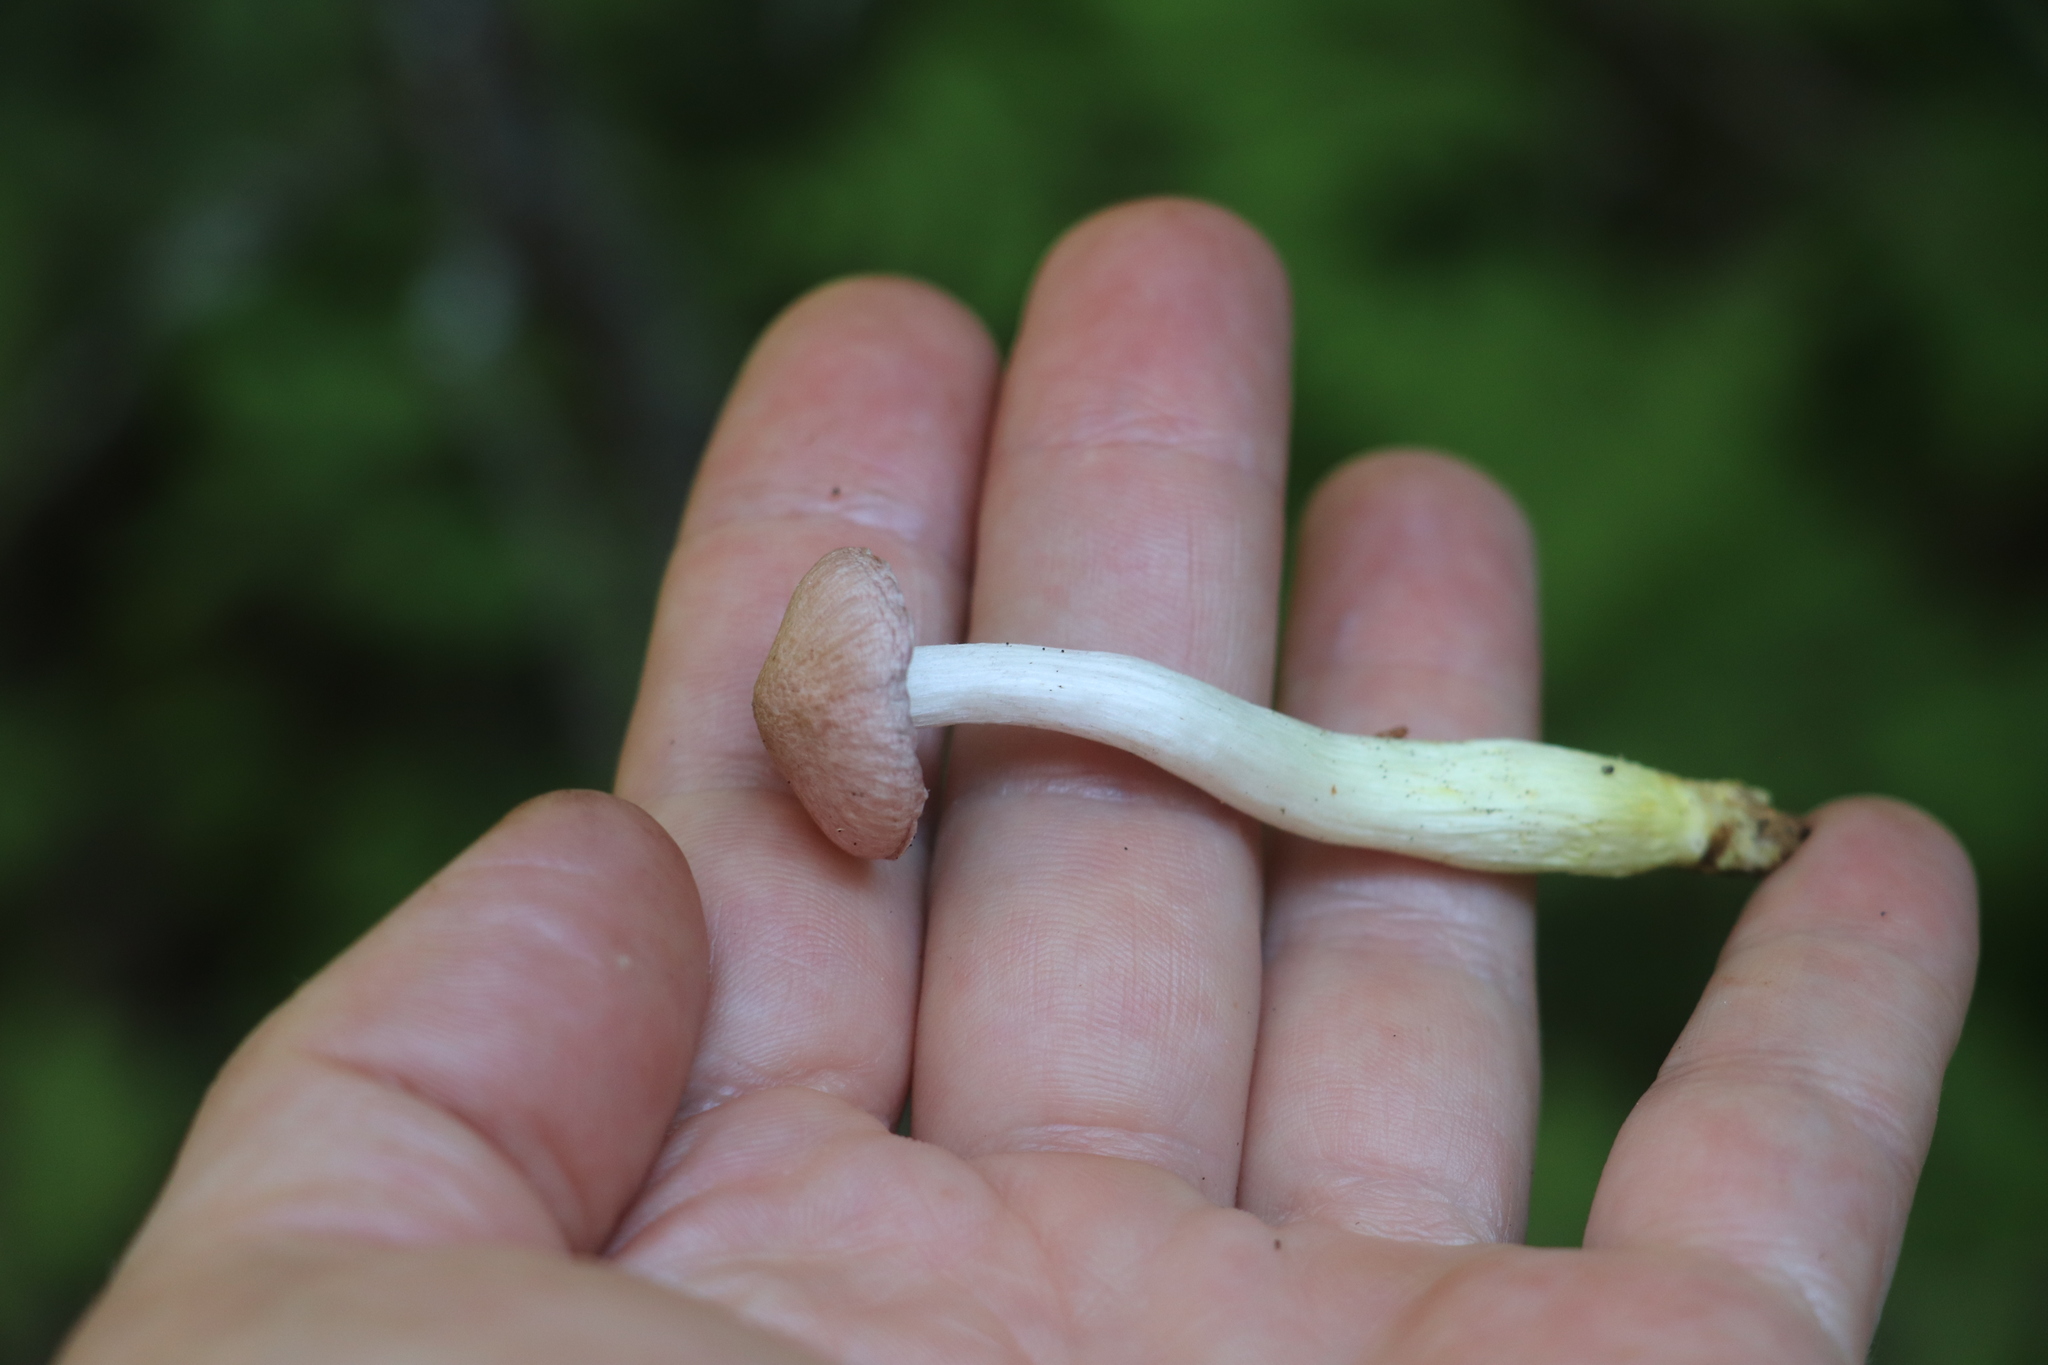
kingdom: Fungi
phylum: Basidiomycota
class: Agaricomycetes
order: Boletales
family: Gomphidiaceae
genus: Gomphidius
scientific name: Gomphidius flavipes
